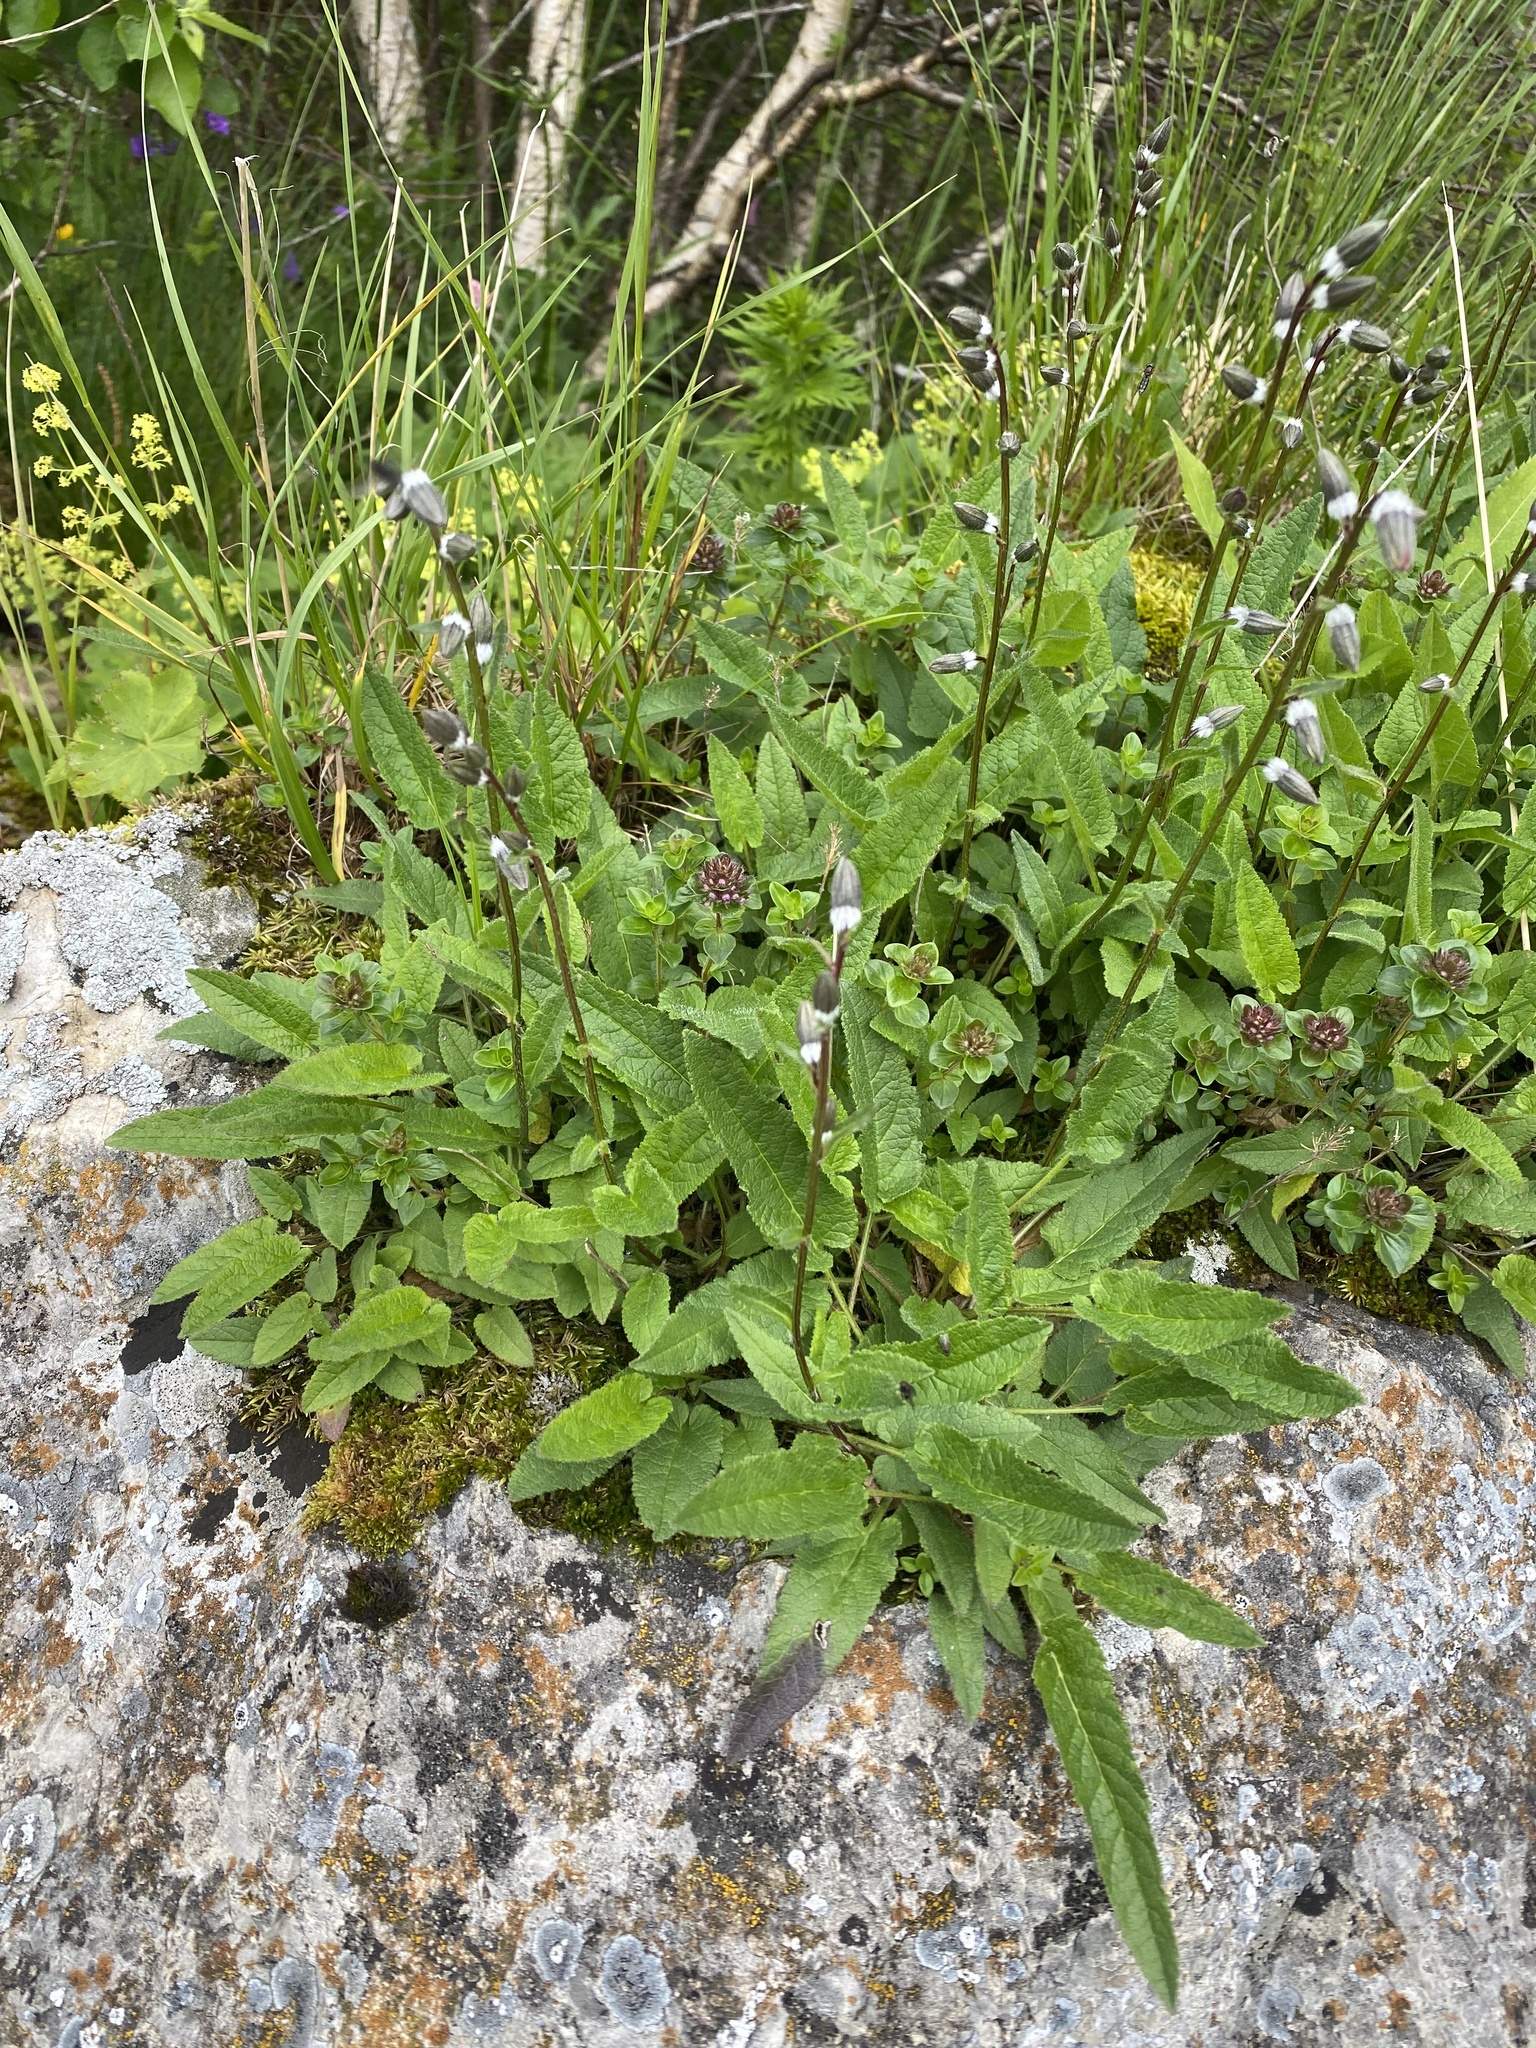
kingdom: Plantae
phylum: Tracheophyta
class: Magnoliopsida
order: Asterales
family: Campanulaceae
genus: Campanula
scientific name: Campanula collina
